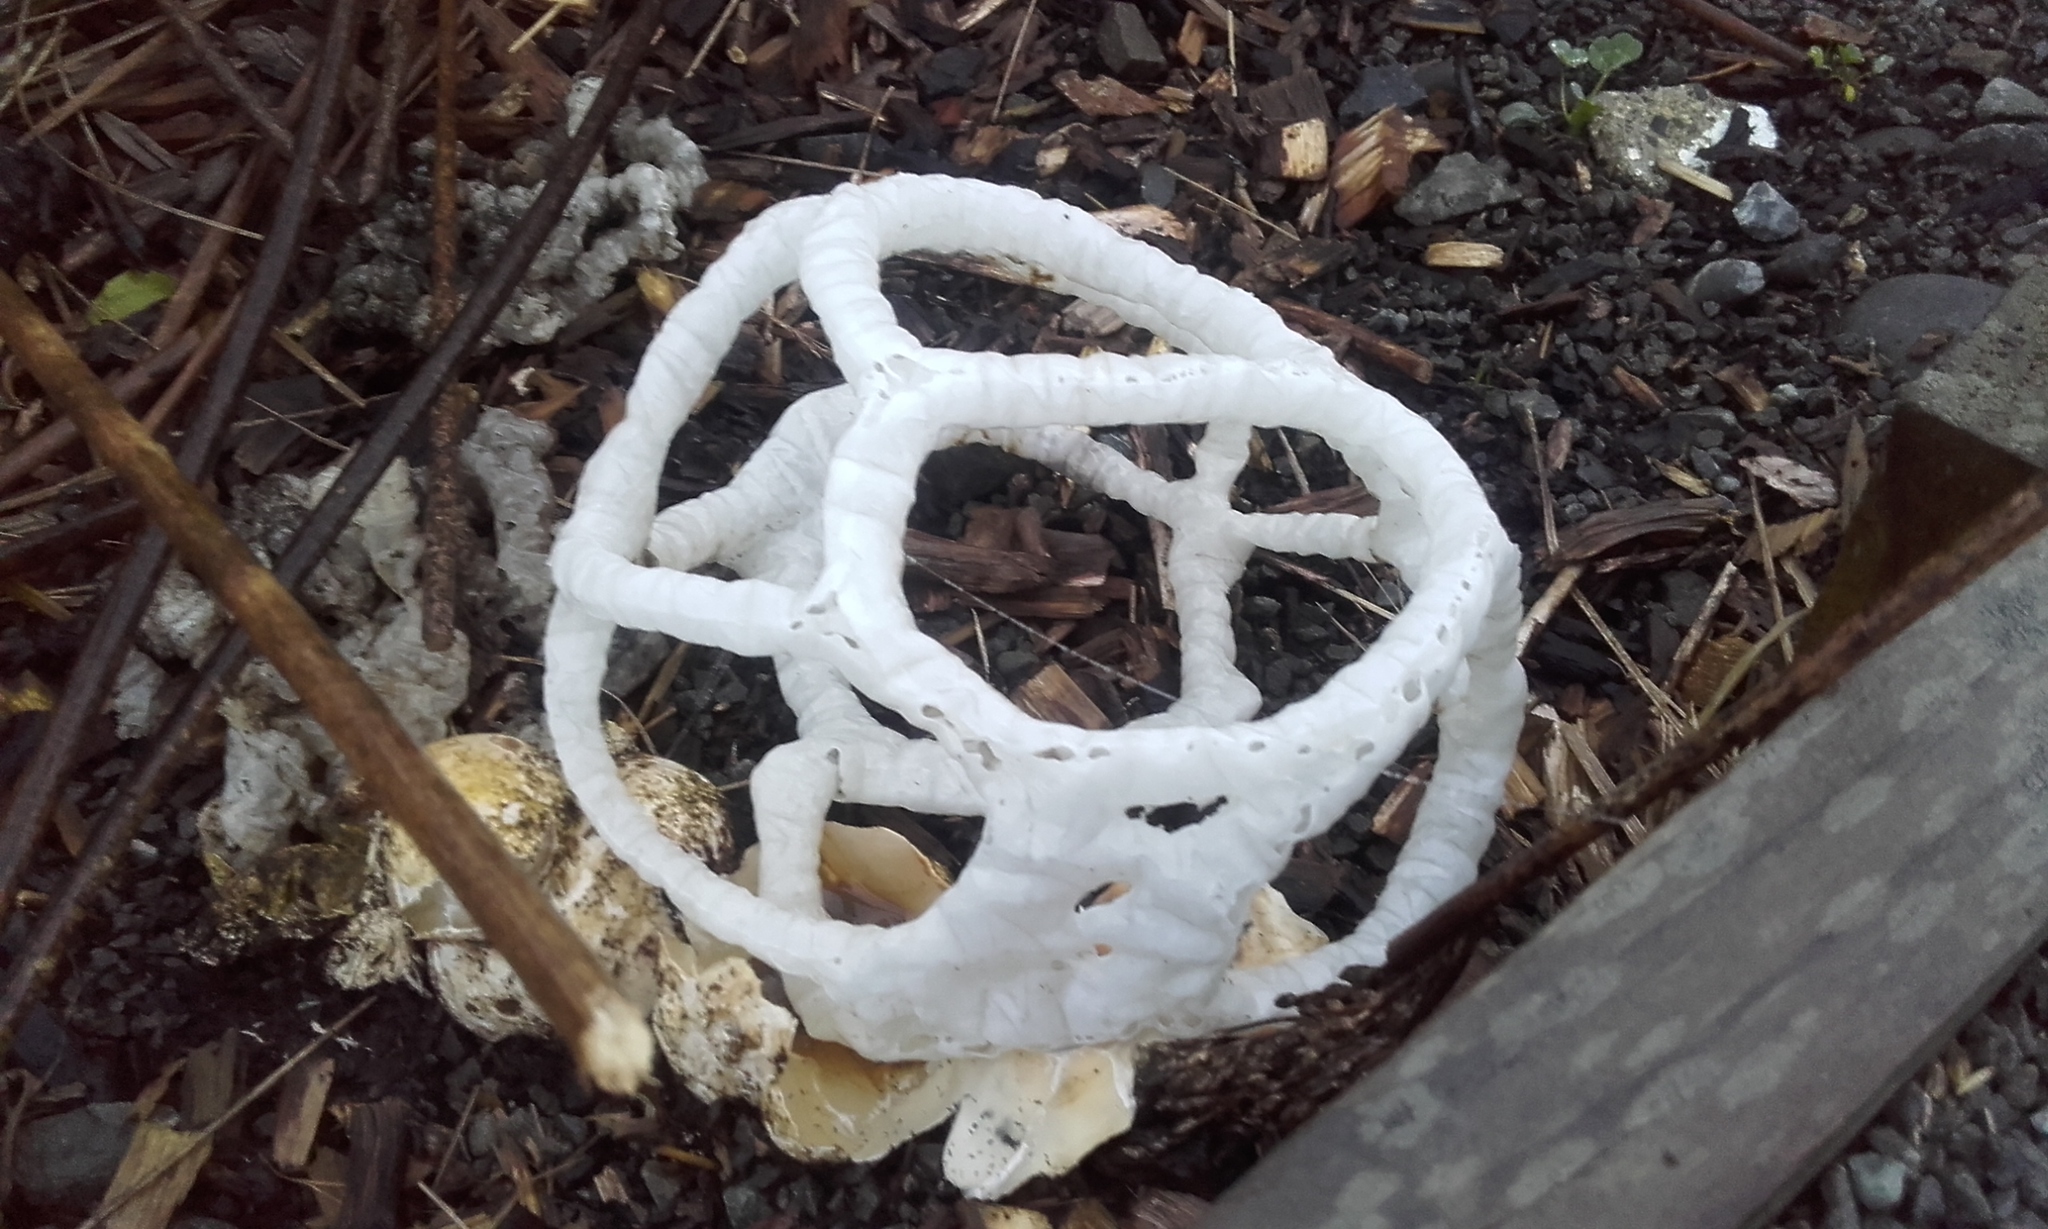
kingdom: Fungi
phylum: Basidiomycota
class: Agaricomycetes
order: Phallales
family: Phallaceae
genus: Ileodictyon
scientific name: Ileodictyon cibarium
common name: Basket fungus
